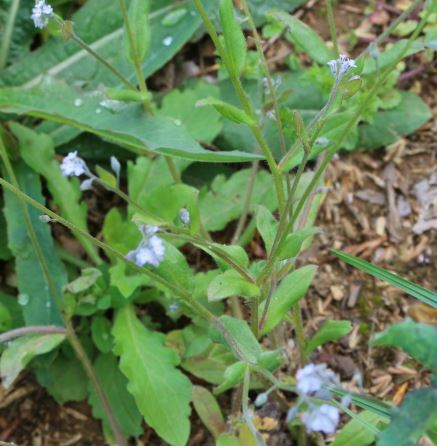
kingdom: Plantae
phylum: Tracheophyta
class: Magnoliopsida
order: Boraginales
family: Boraginaceae
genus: Myosotis
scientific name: Myosotis arvensis
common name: Field forget-me-not
